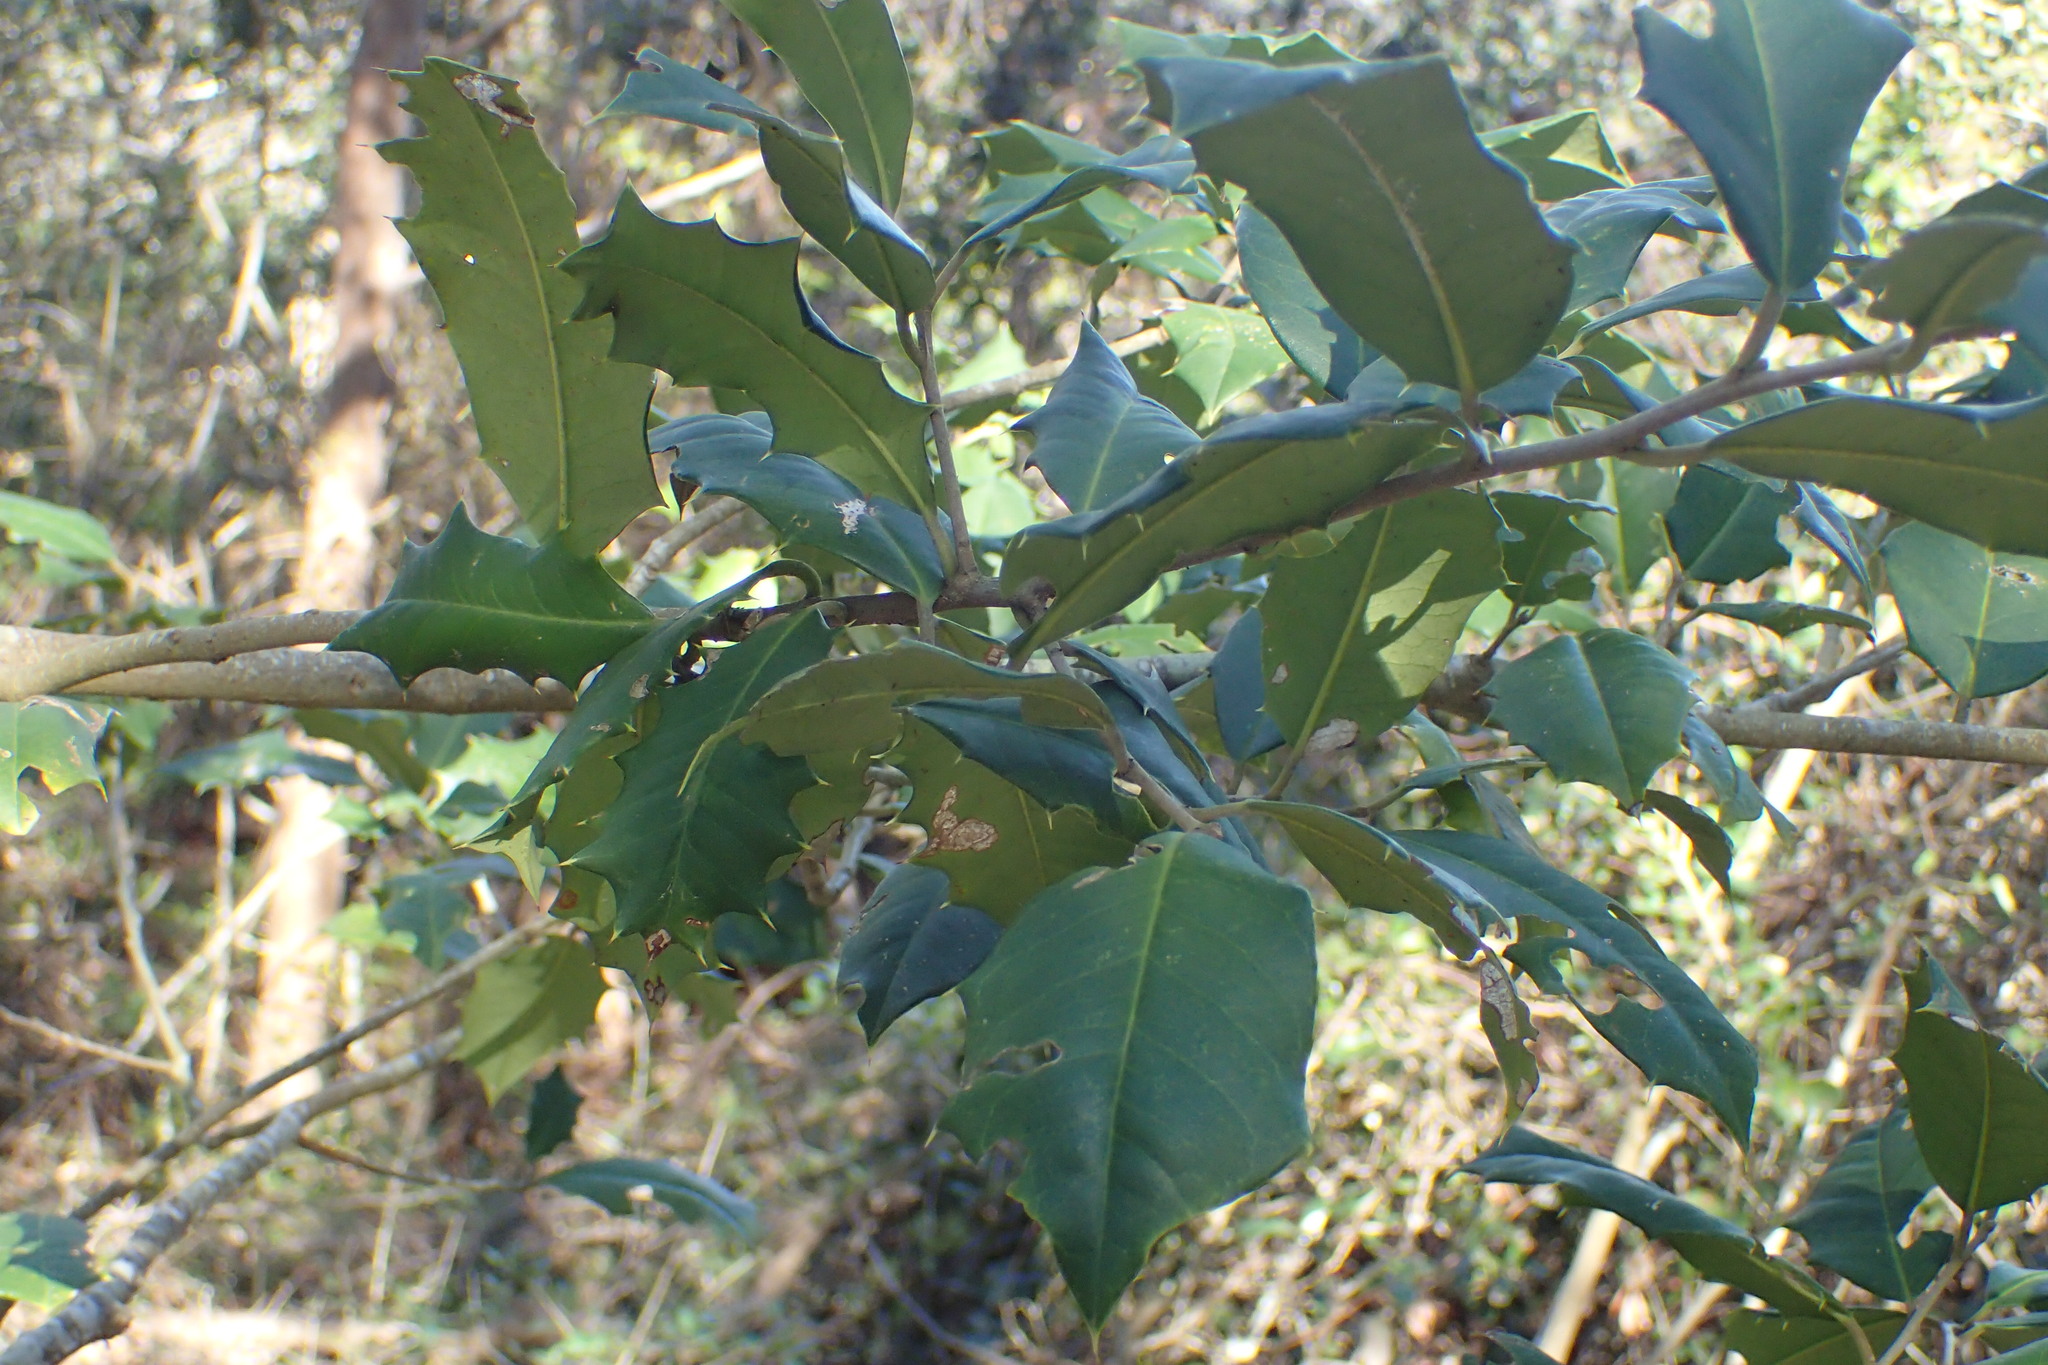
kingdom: Plantae
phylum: Tracheophyta
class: Magnoliopsida
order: Aquifoliales
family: Aquifoliaceae
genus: Ilex
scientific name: Ilex opaca
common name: American holly
